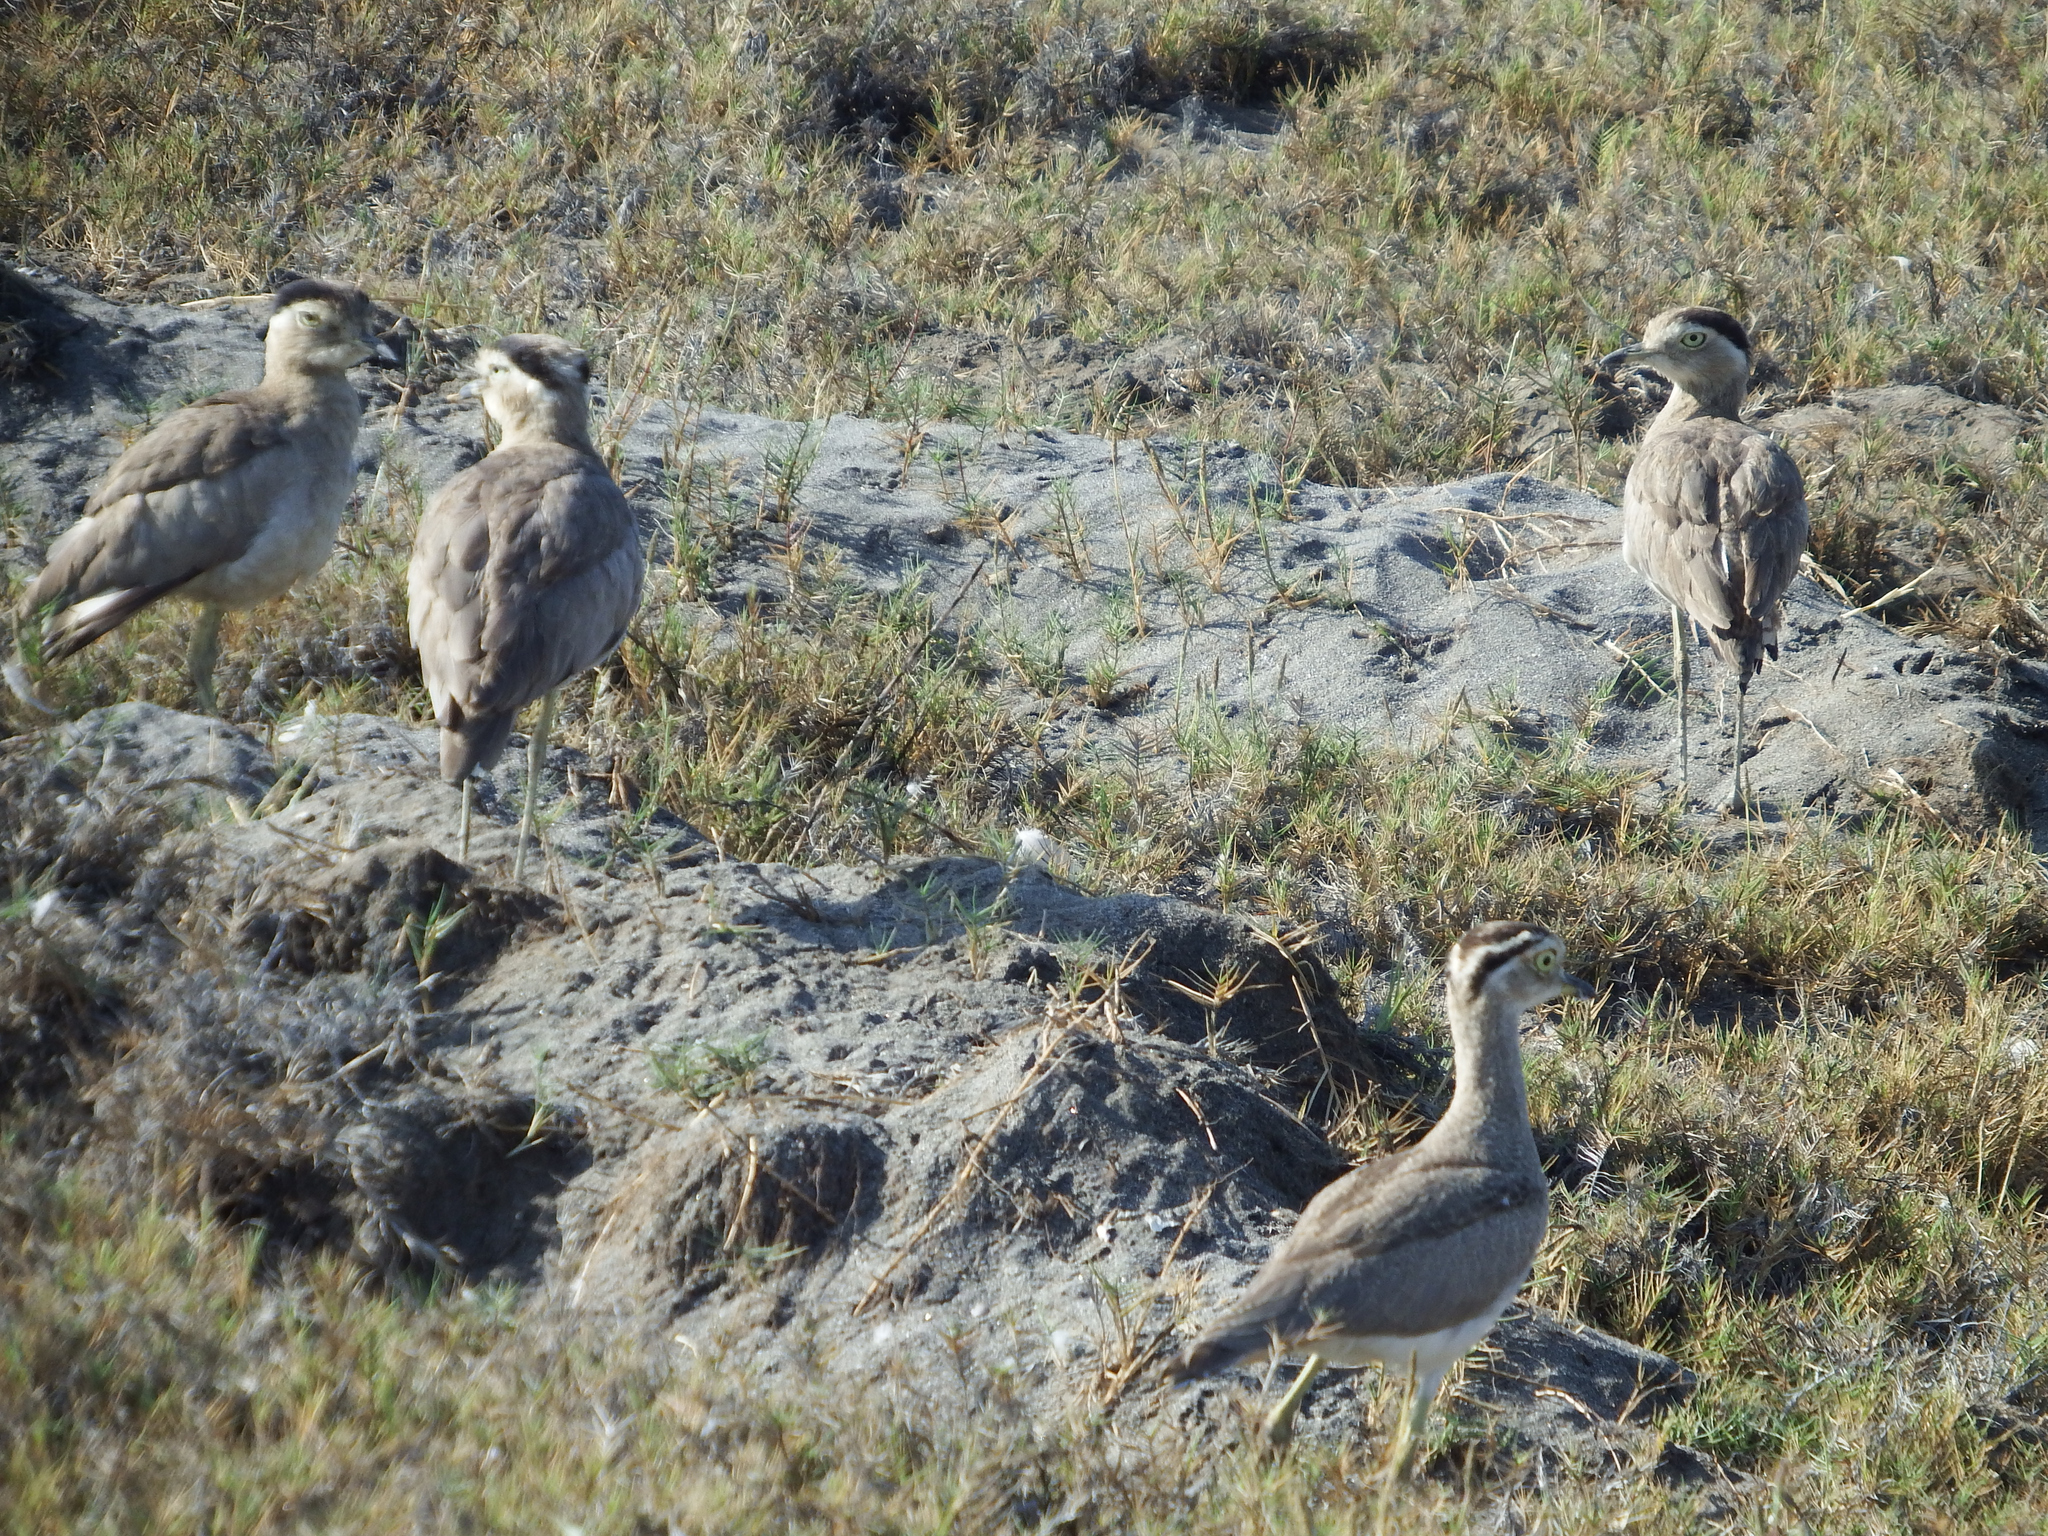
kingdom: Animalia
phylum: Chordata
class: Aves
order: Charadriiformes
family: Burhinidae
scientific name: Burhinidae
